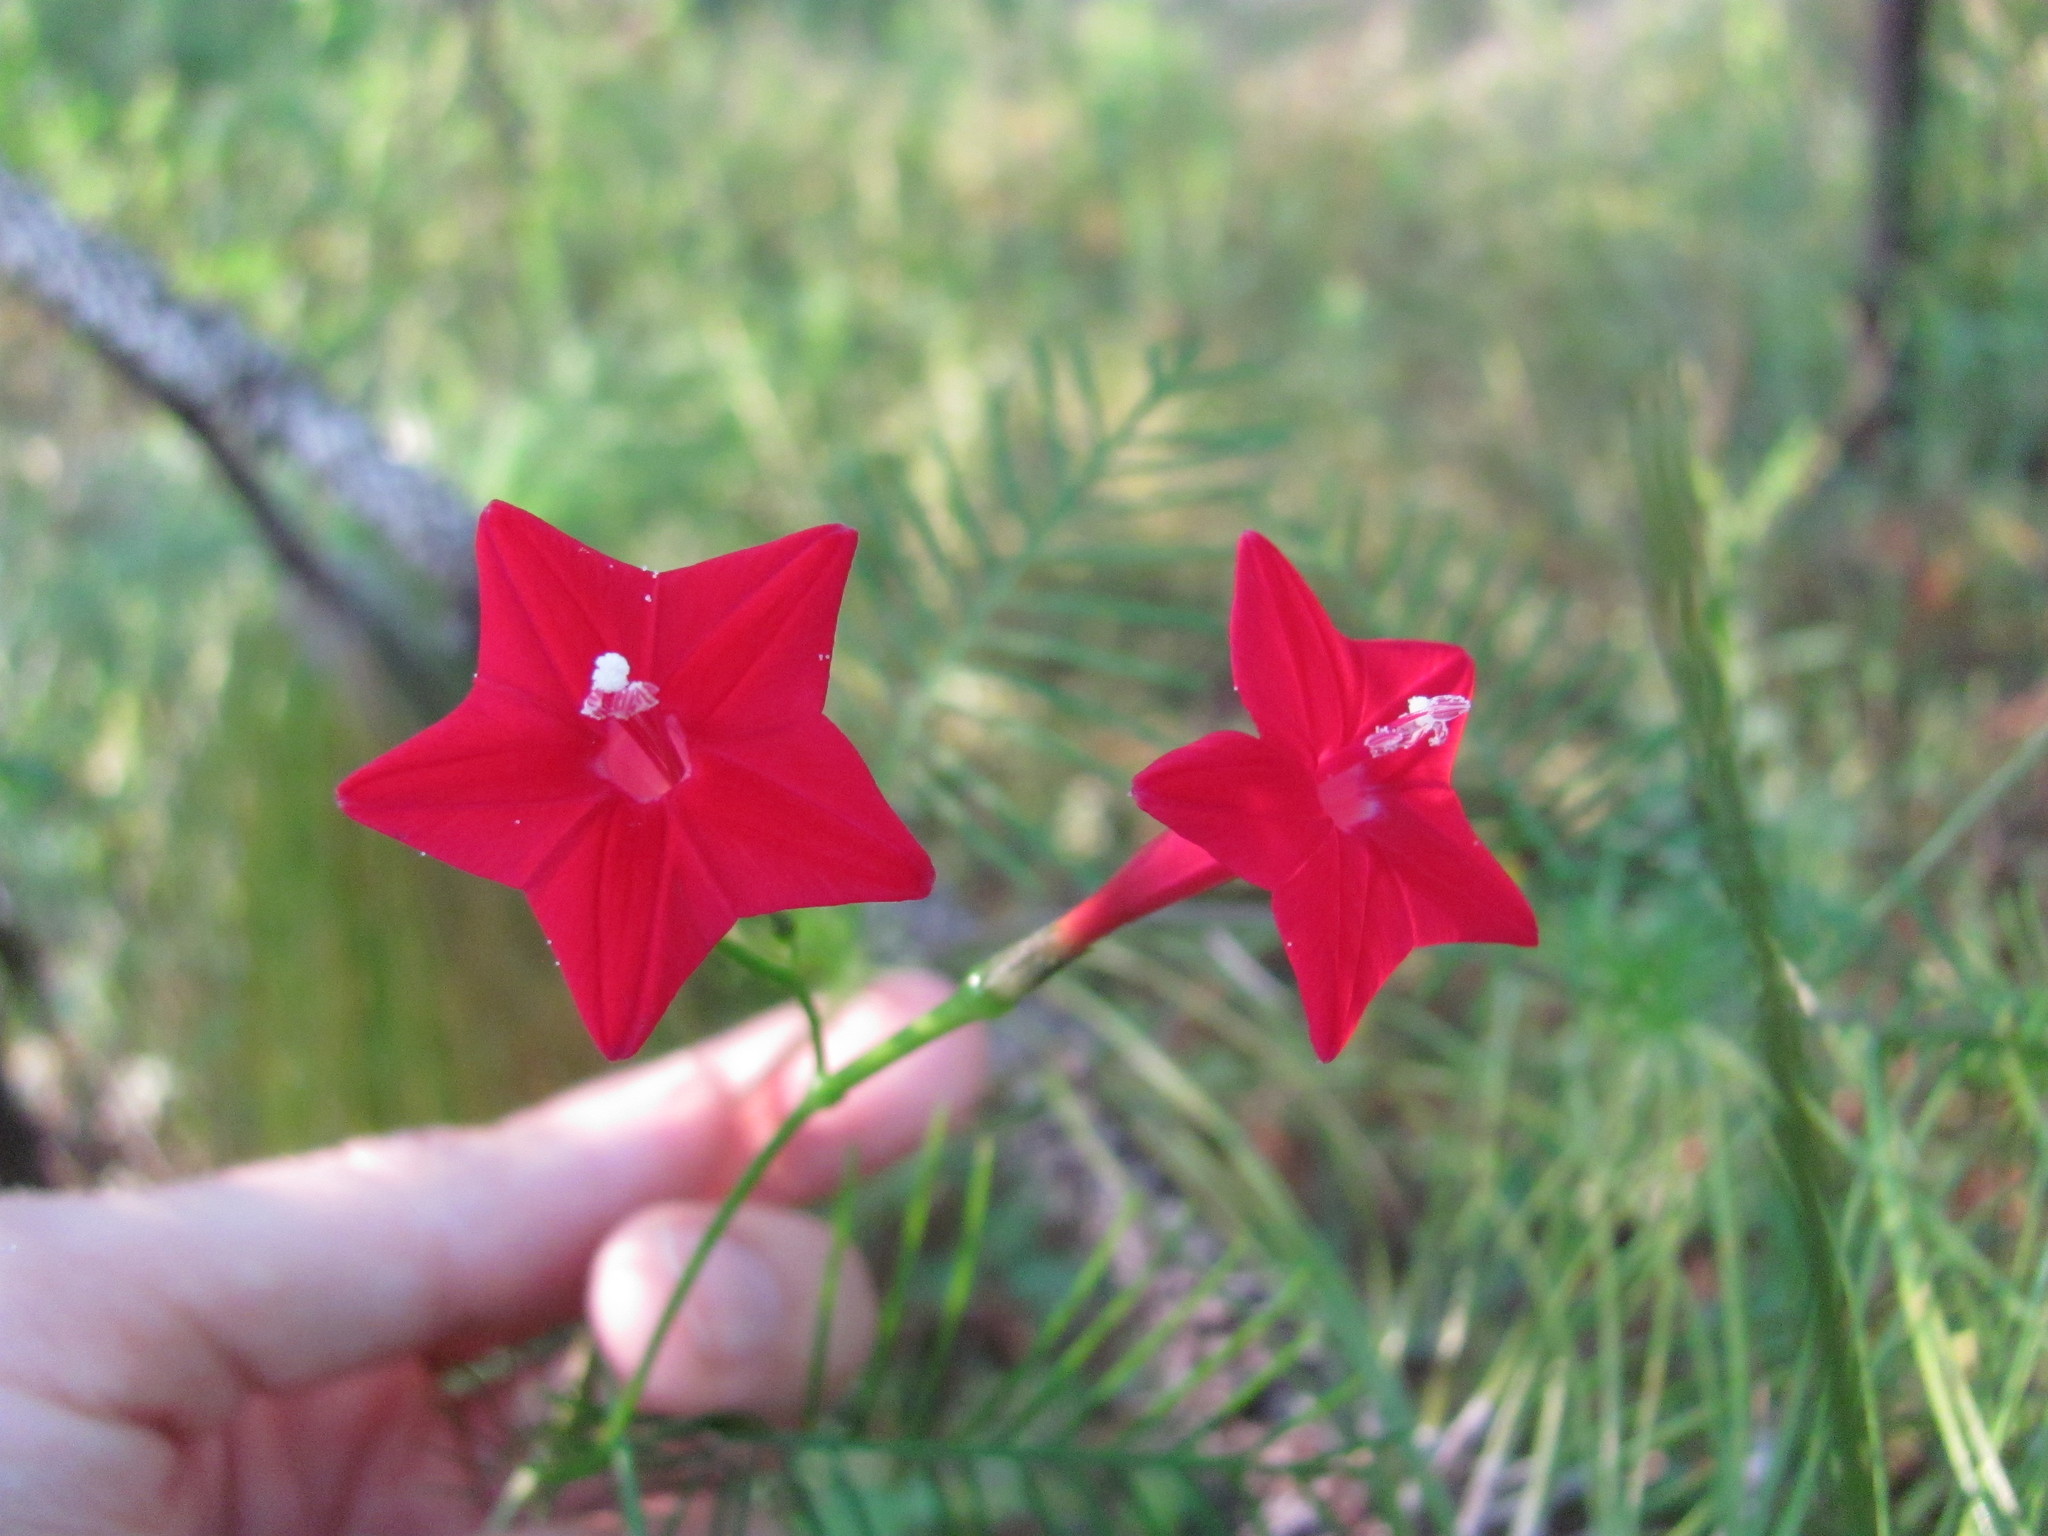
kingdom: Plantae
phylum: Tracheophyta
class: Magnoliopsida
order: Solanales
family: Convolvulaceae
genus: Ipomoea
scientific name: Ipomoea quamoclit
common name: Cypress vine
